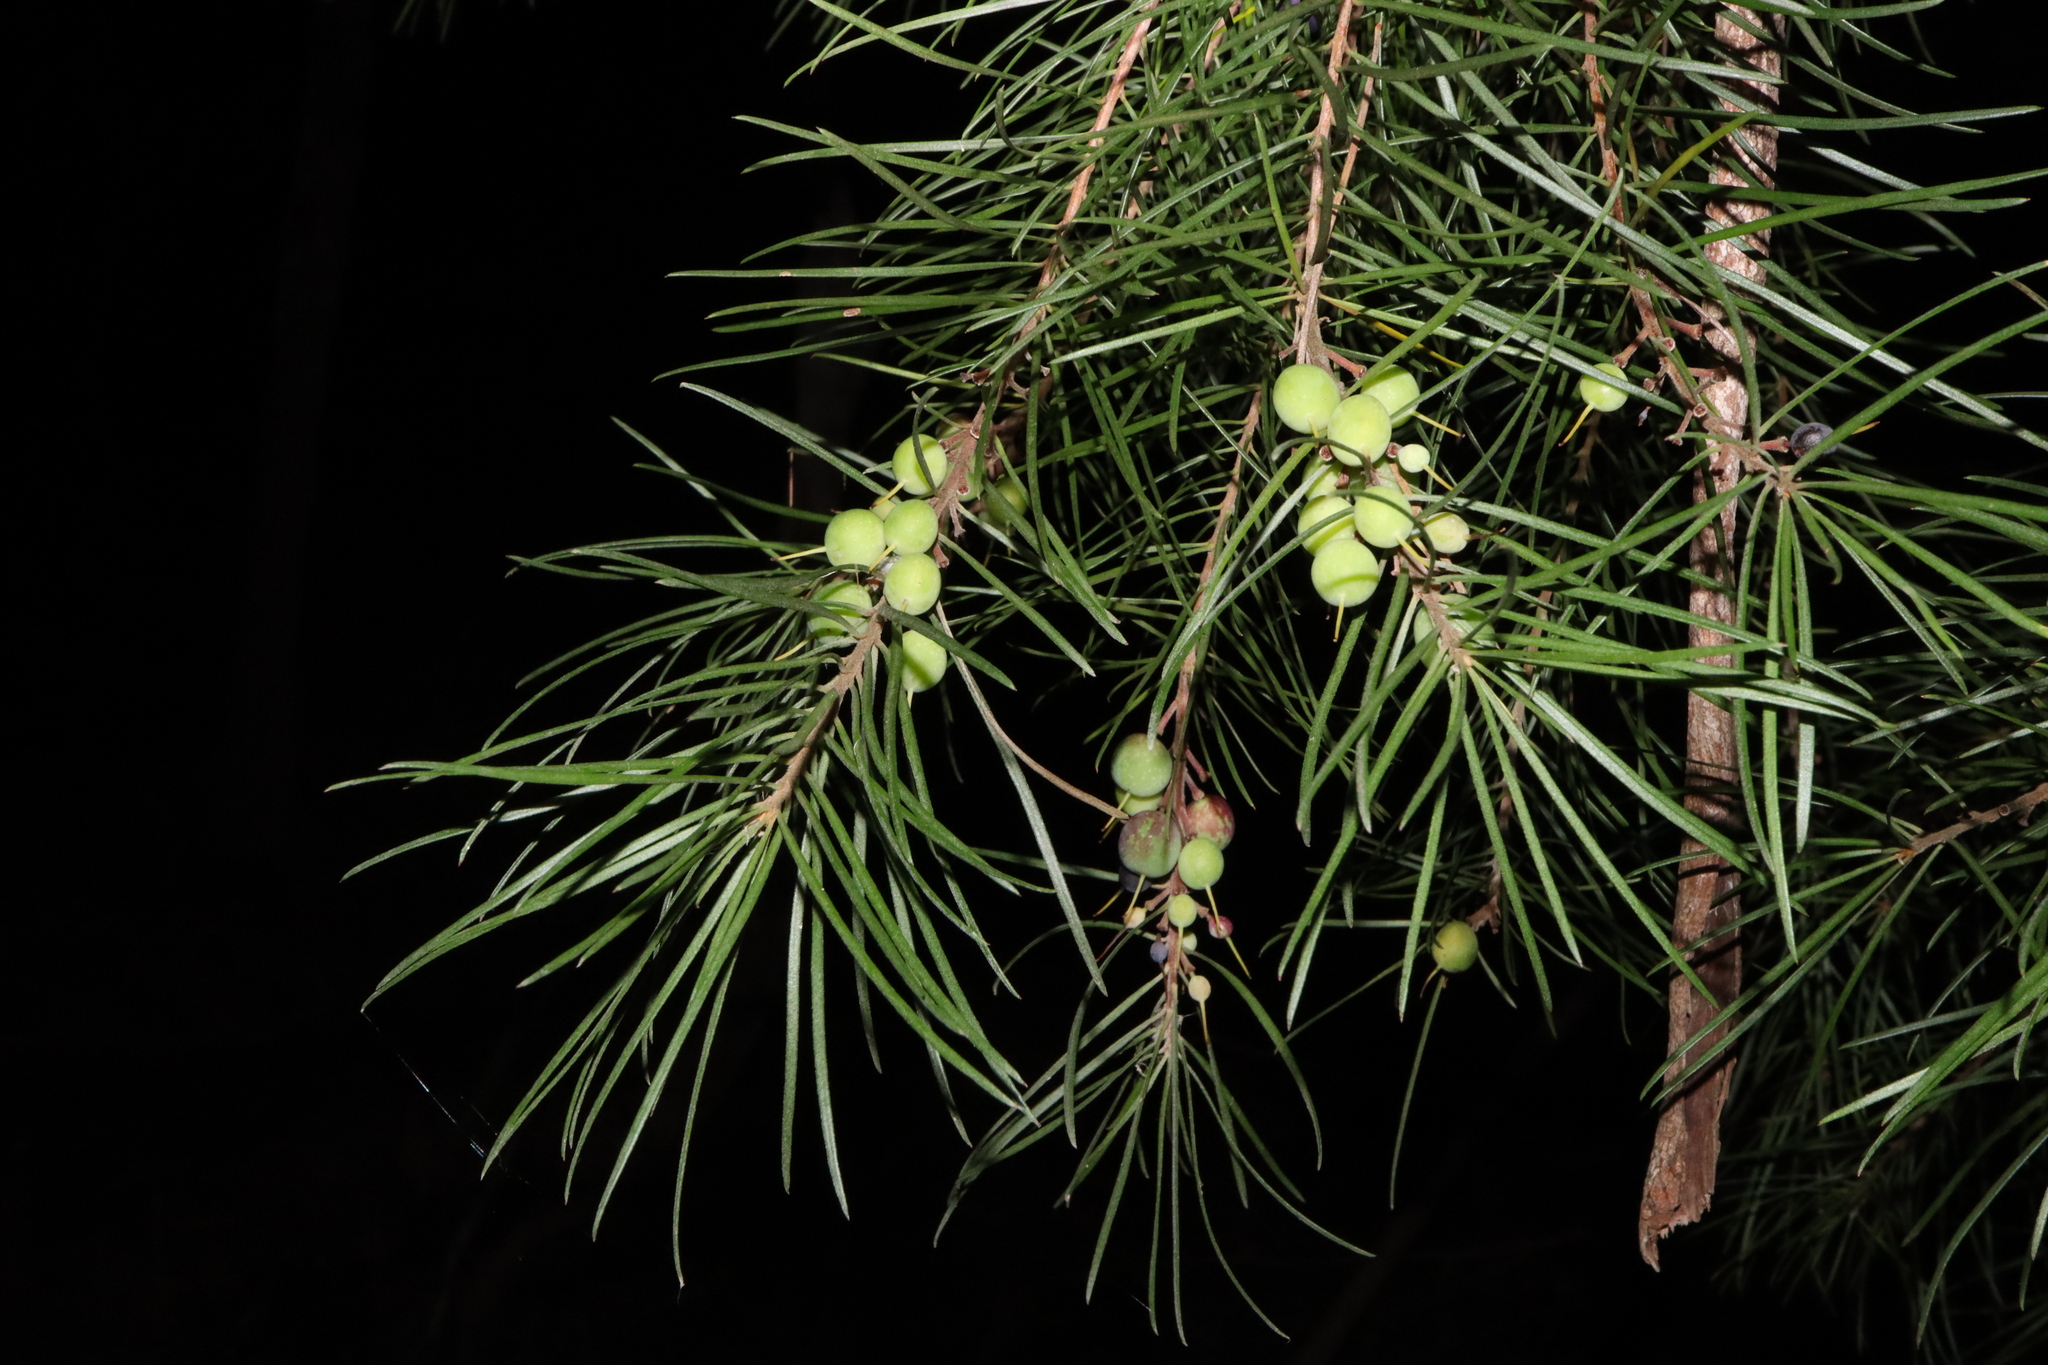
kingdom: Plantae
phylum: Tracheophyta
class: Magnoliopsida
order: Proteales
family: Proteaceae
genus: Persoonia
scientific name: Persoonia linearis
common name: Narrow-leaf geebung
